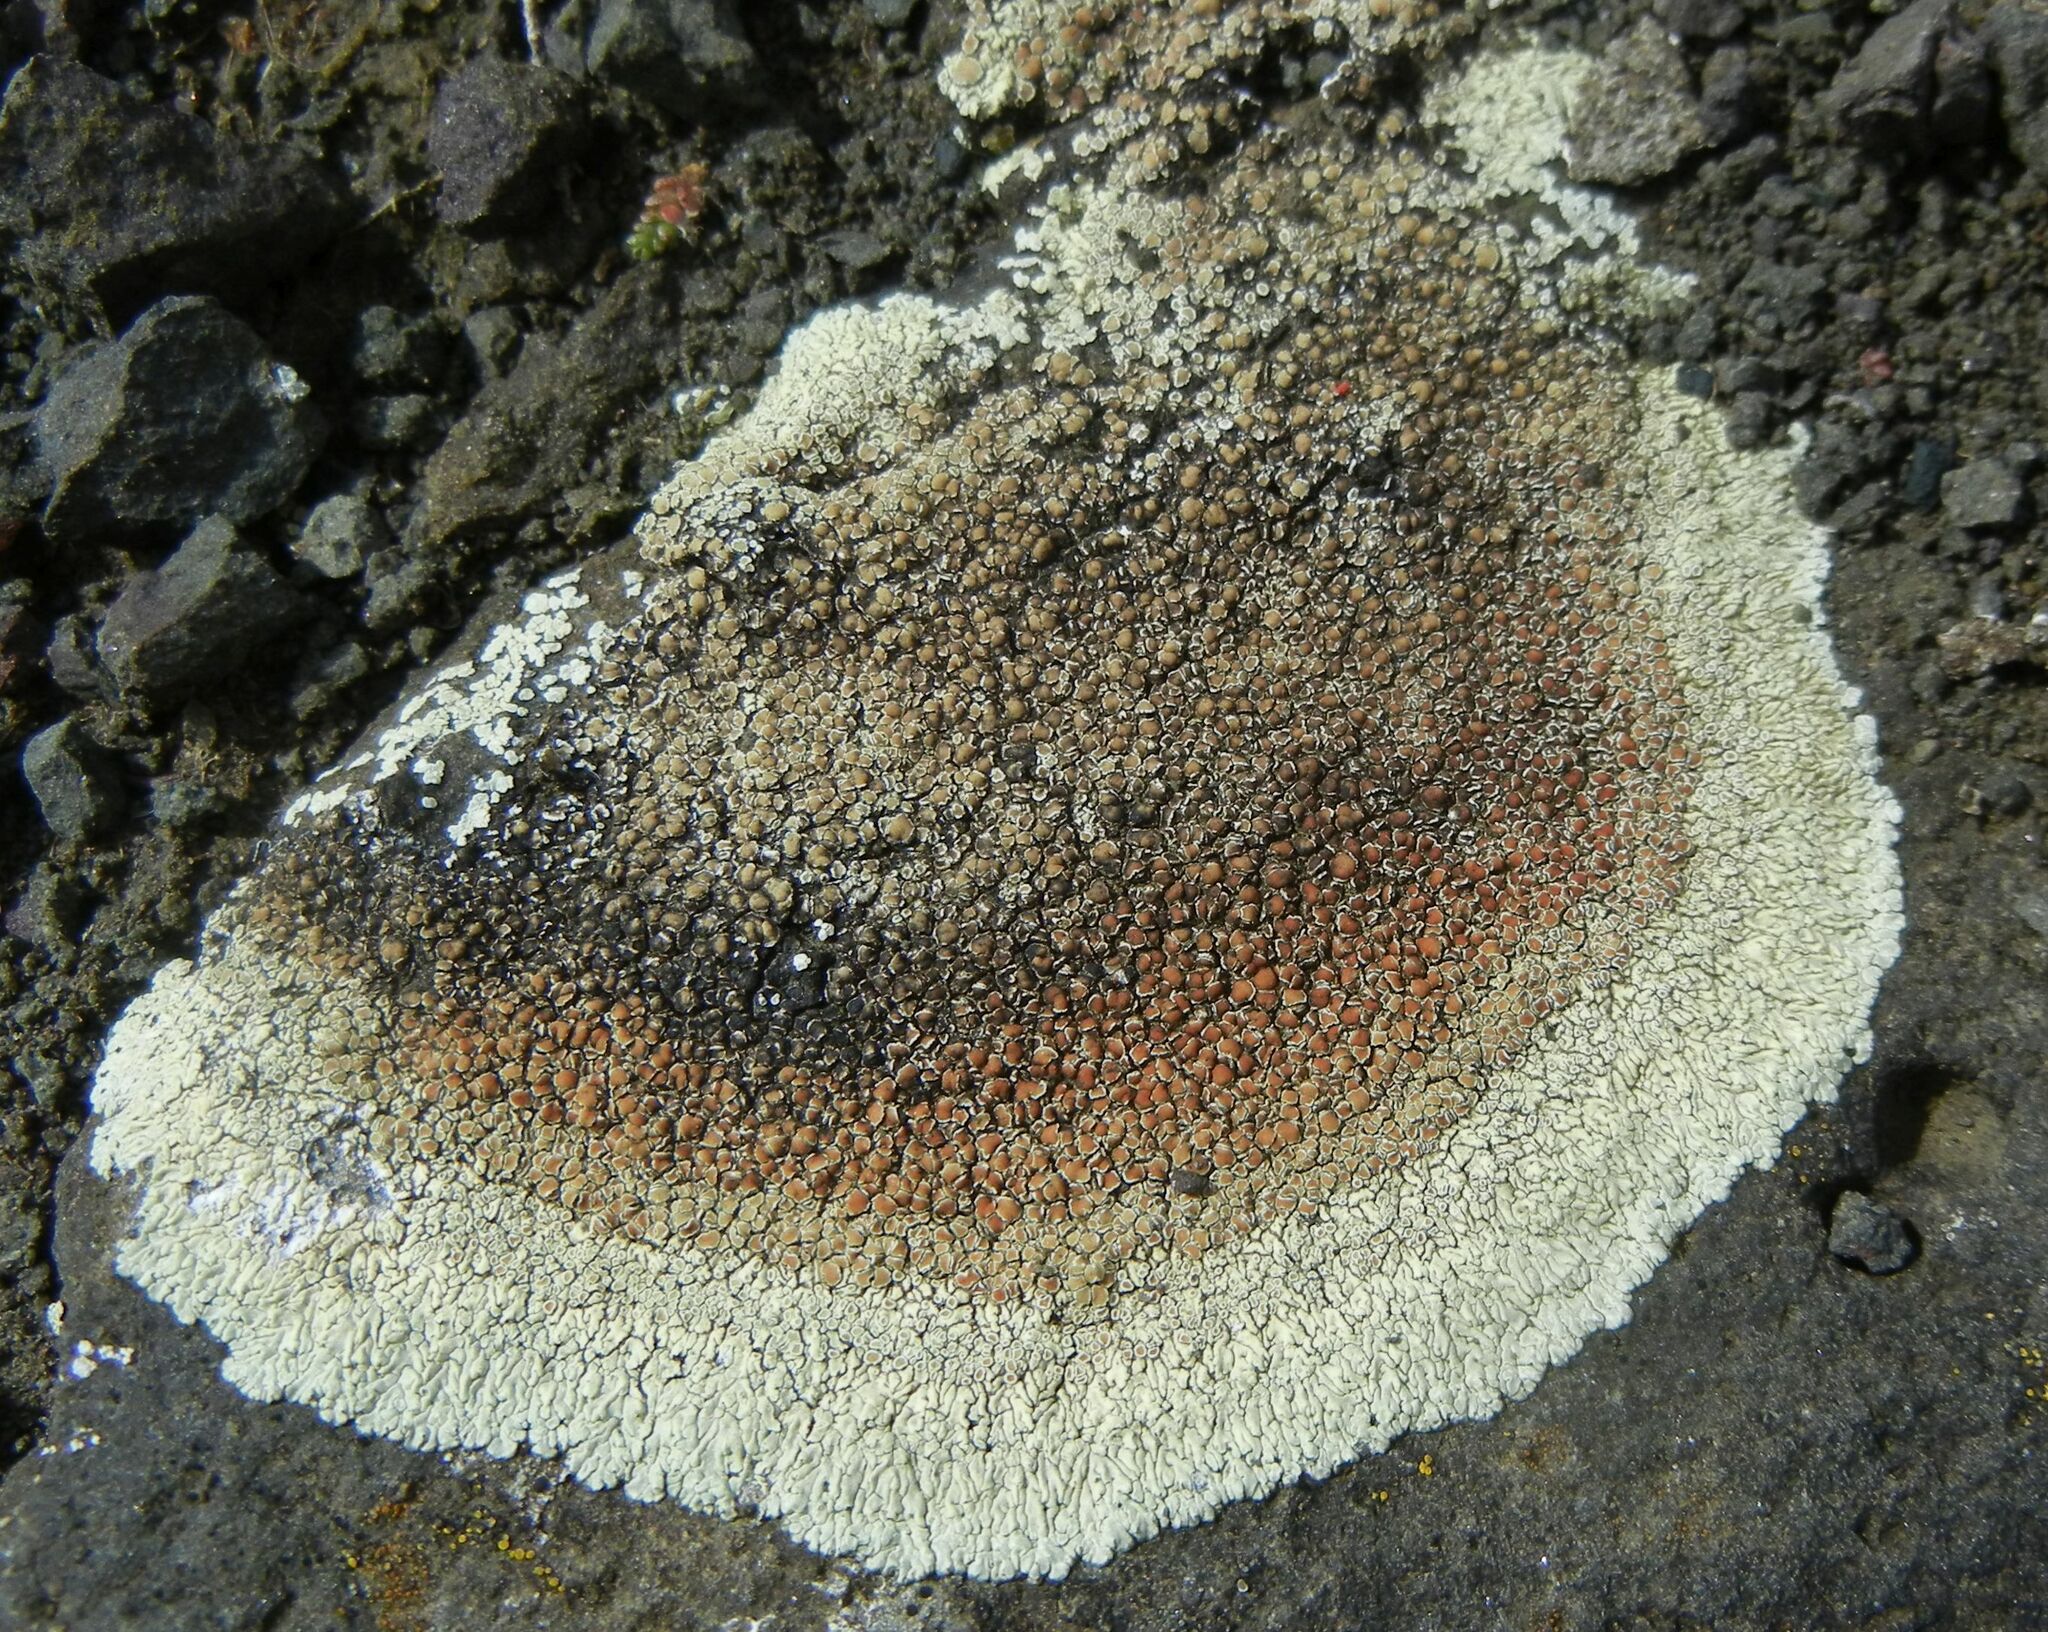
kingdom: Fungi
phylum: Ascomycota
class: Lecanoromycetes
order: Lecanorales
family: Lecanoraceae
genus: Protoparmeliopsis
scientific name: Protoparmeliopsis muralis
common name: Stonewall rim lichen
